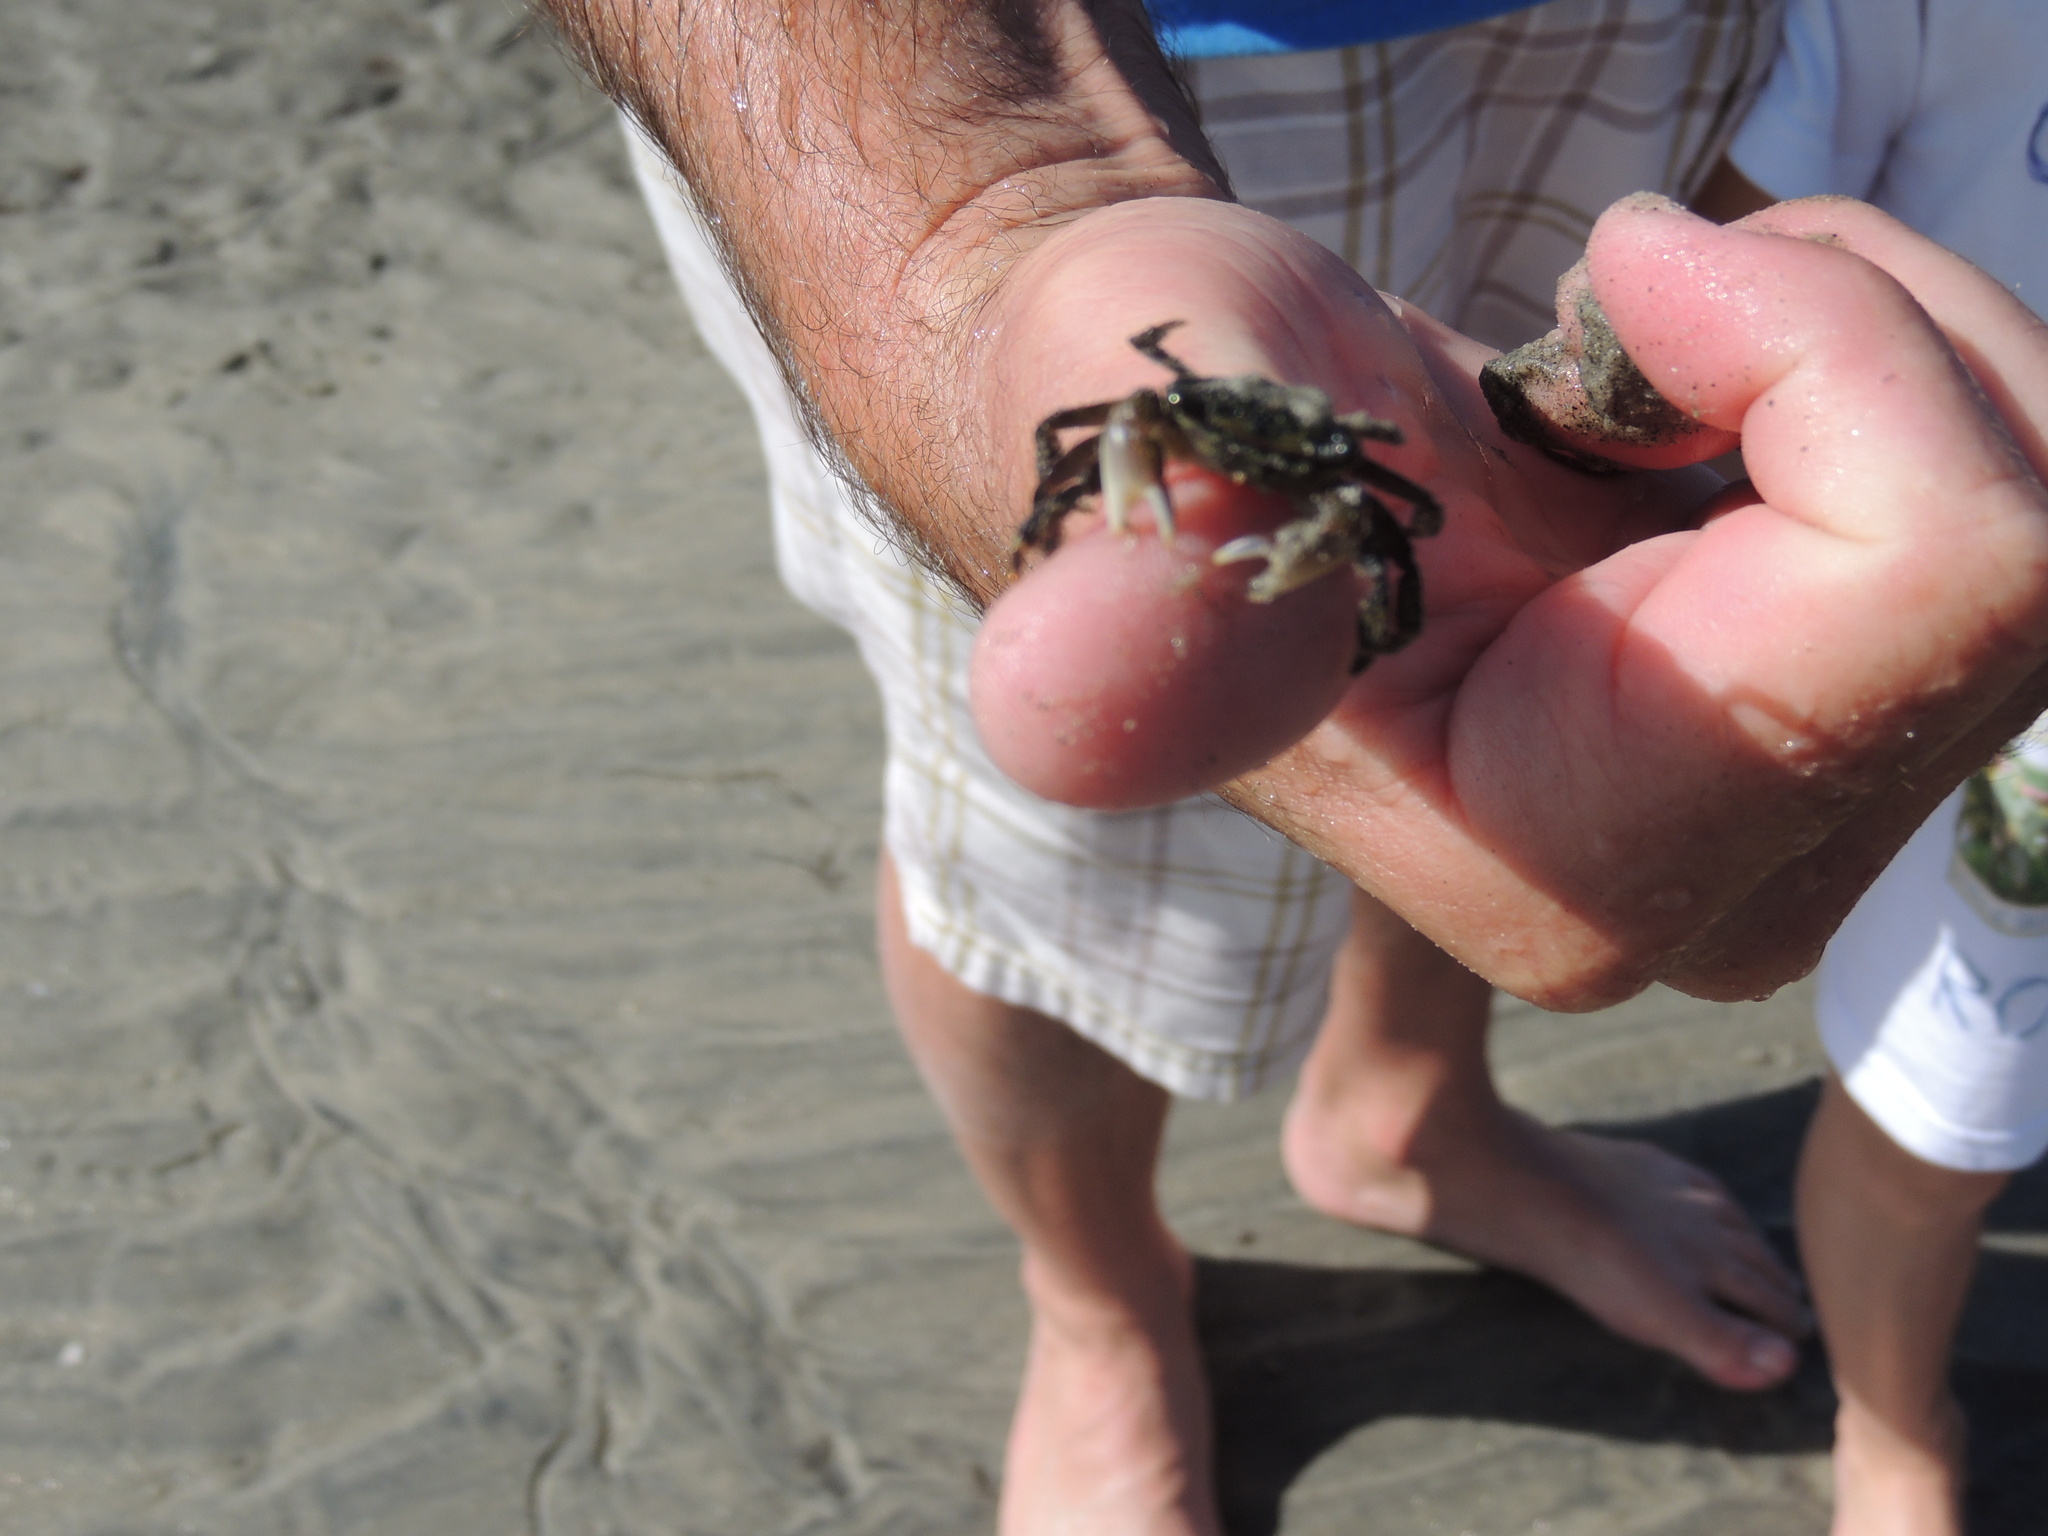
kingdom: Animalia
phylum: Arthropoda
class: Malacostraca
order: Decapoda
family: Grapsidae
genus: Pachygrapsus
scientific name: Pachygrapsus crassipes
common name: Striped shore crab
